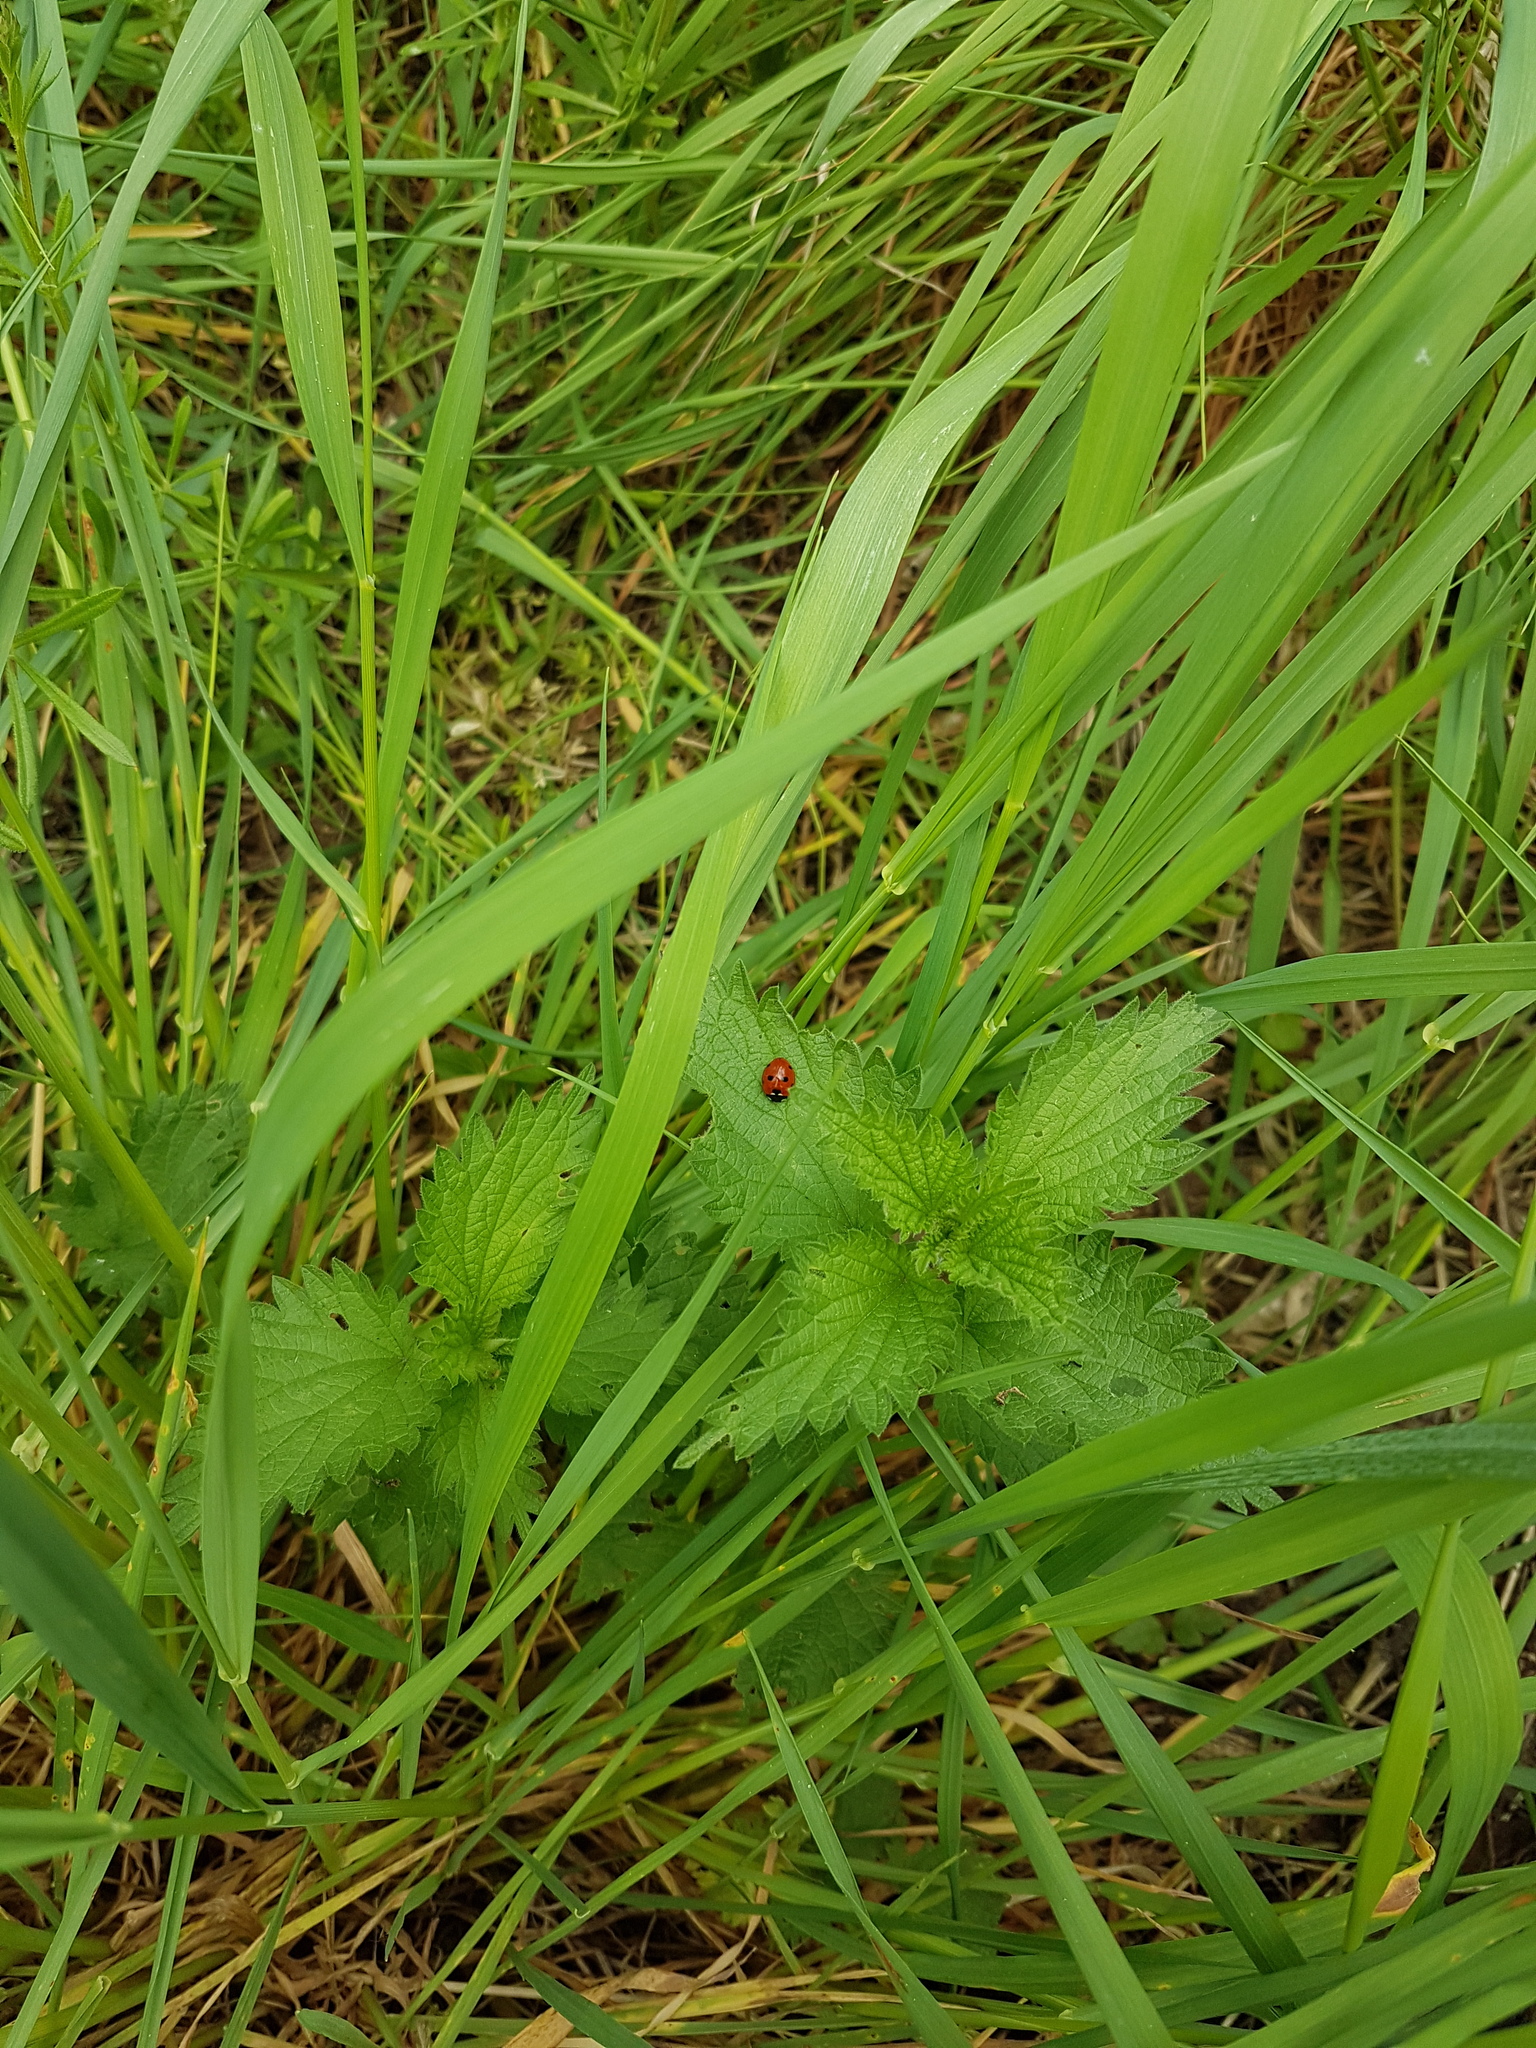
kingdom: Animalia
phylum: Arthropoda
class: Insecta
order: Coleoptera
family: Coccinellidae
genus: Coccinella
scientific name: Coccinella septempunctata
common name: Sevenspotted lady beetle
